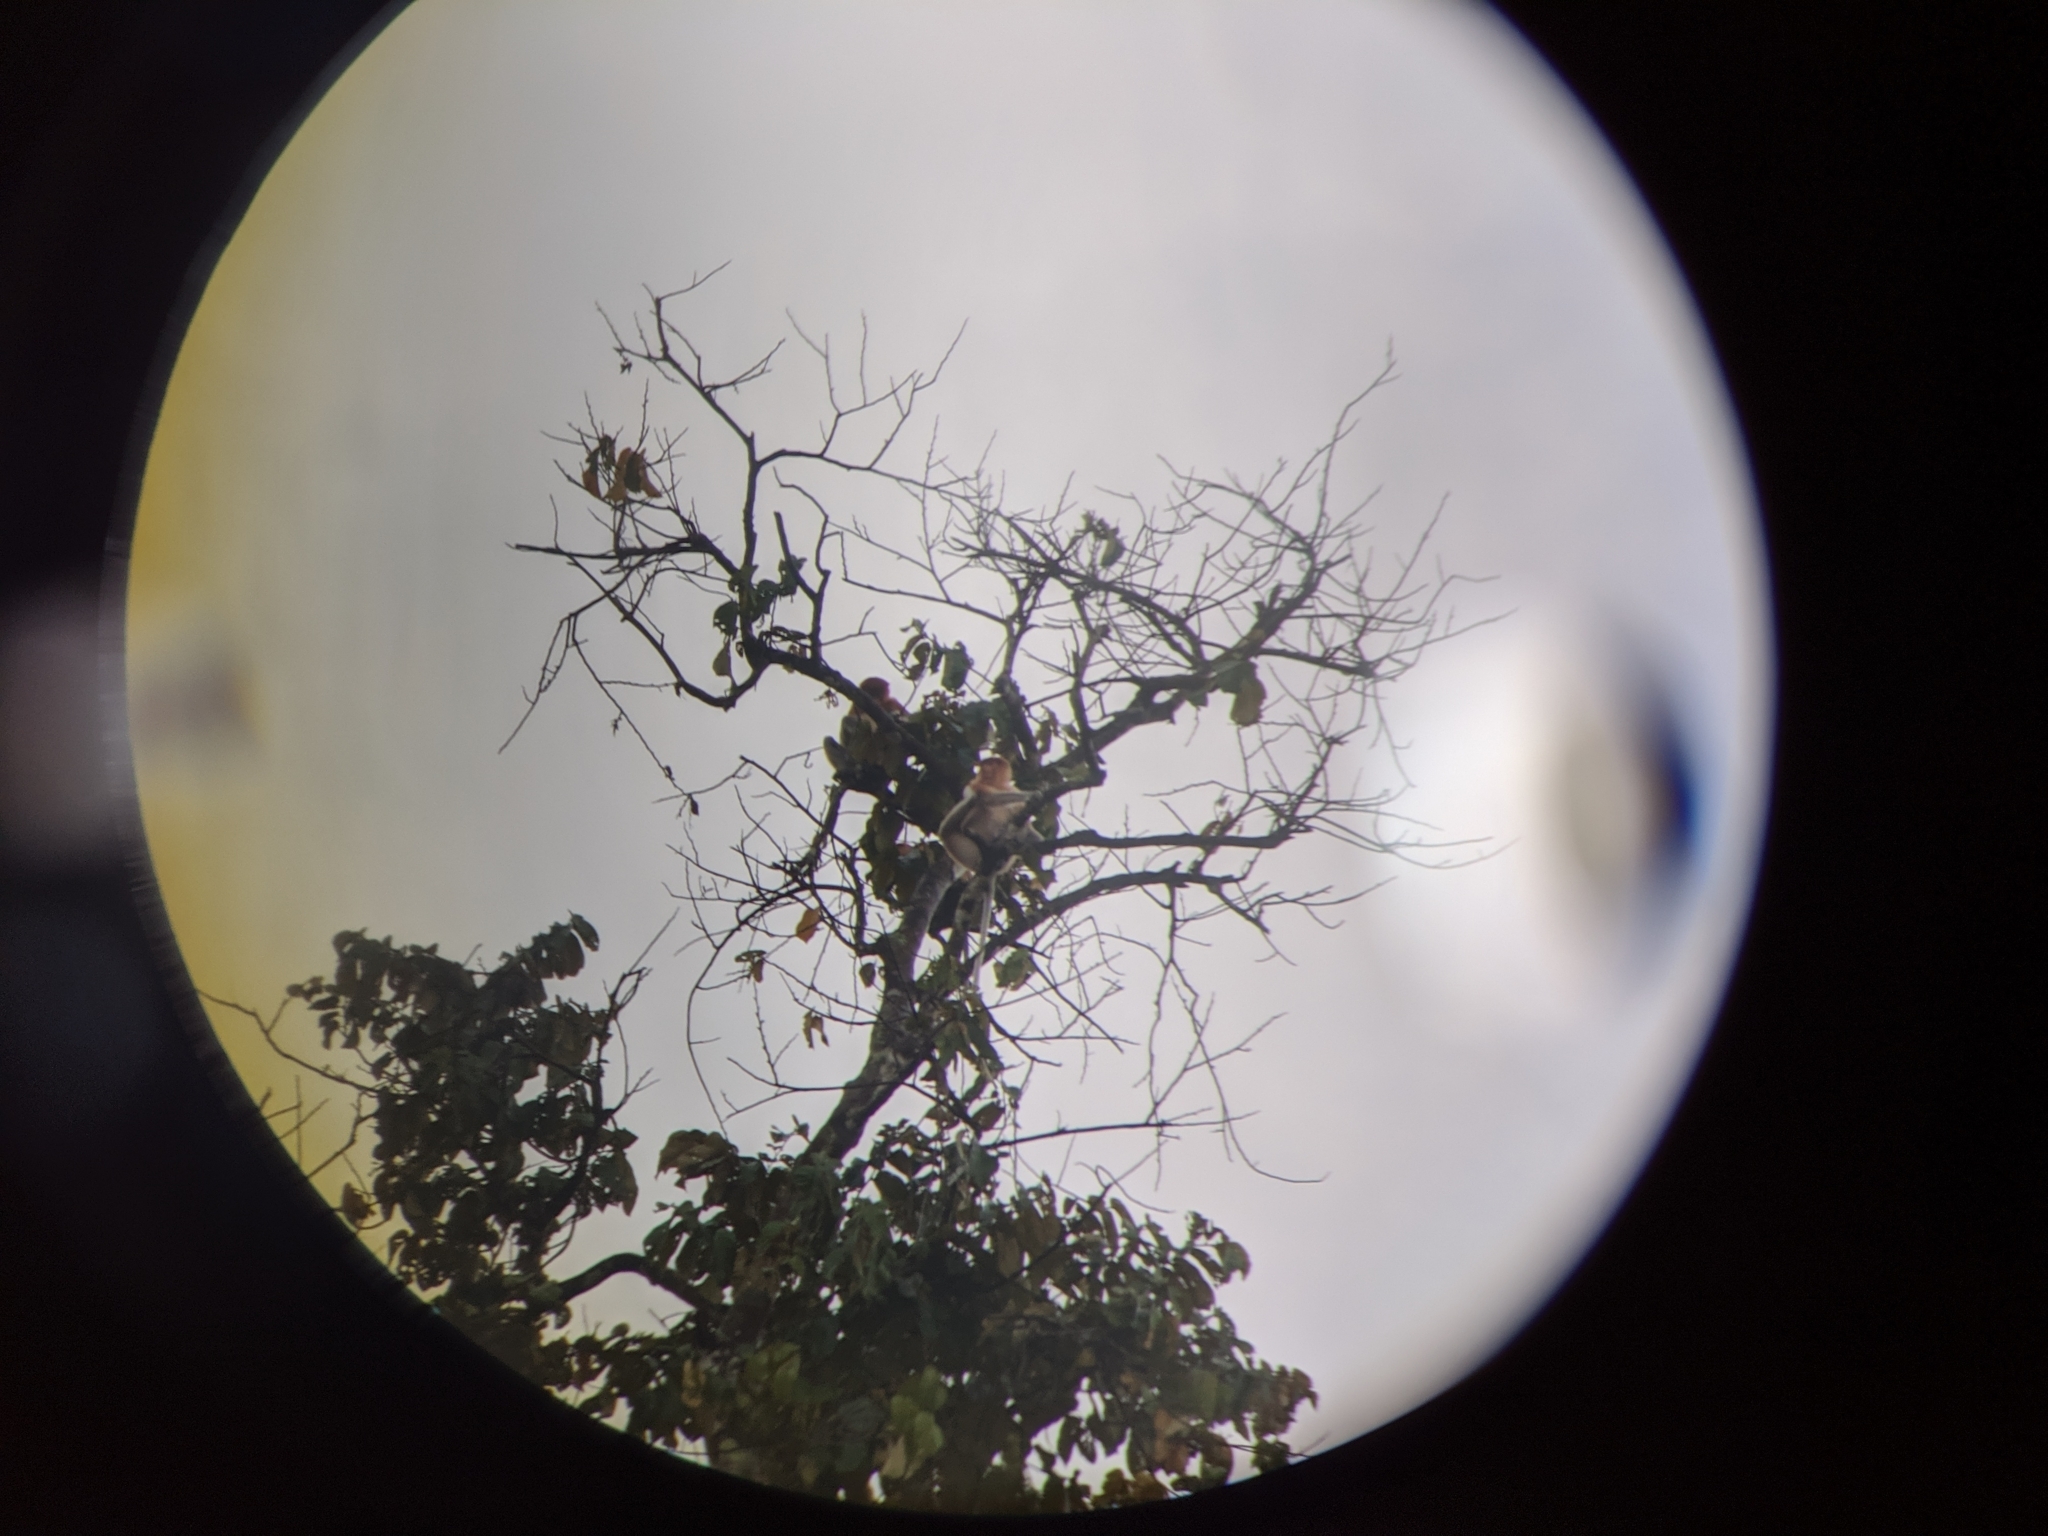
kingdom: Animalia
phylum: Chordata
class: Mammalia
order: Primates
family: Cercopithecidae
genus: Nasalis
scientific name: Nasalis larvatus
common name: Proboscis monkey
